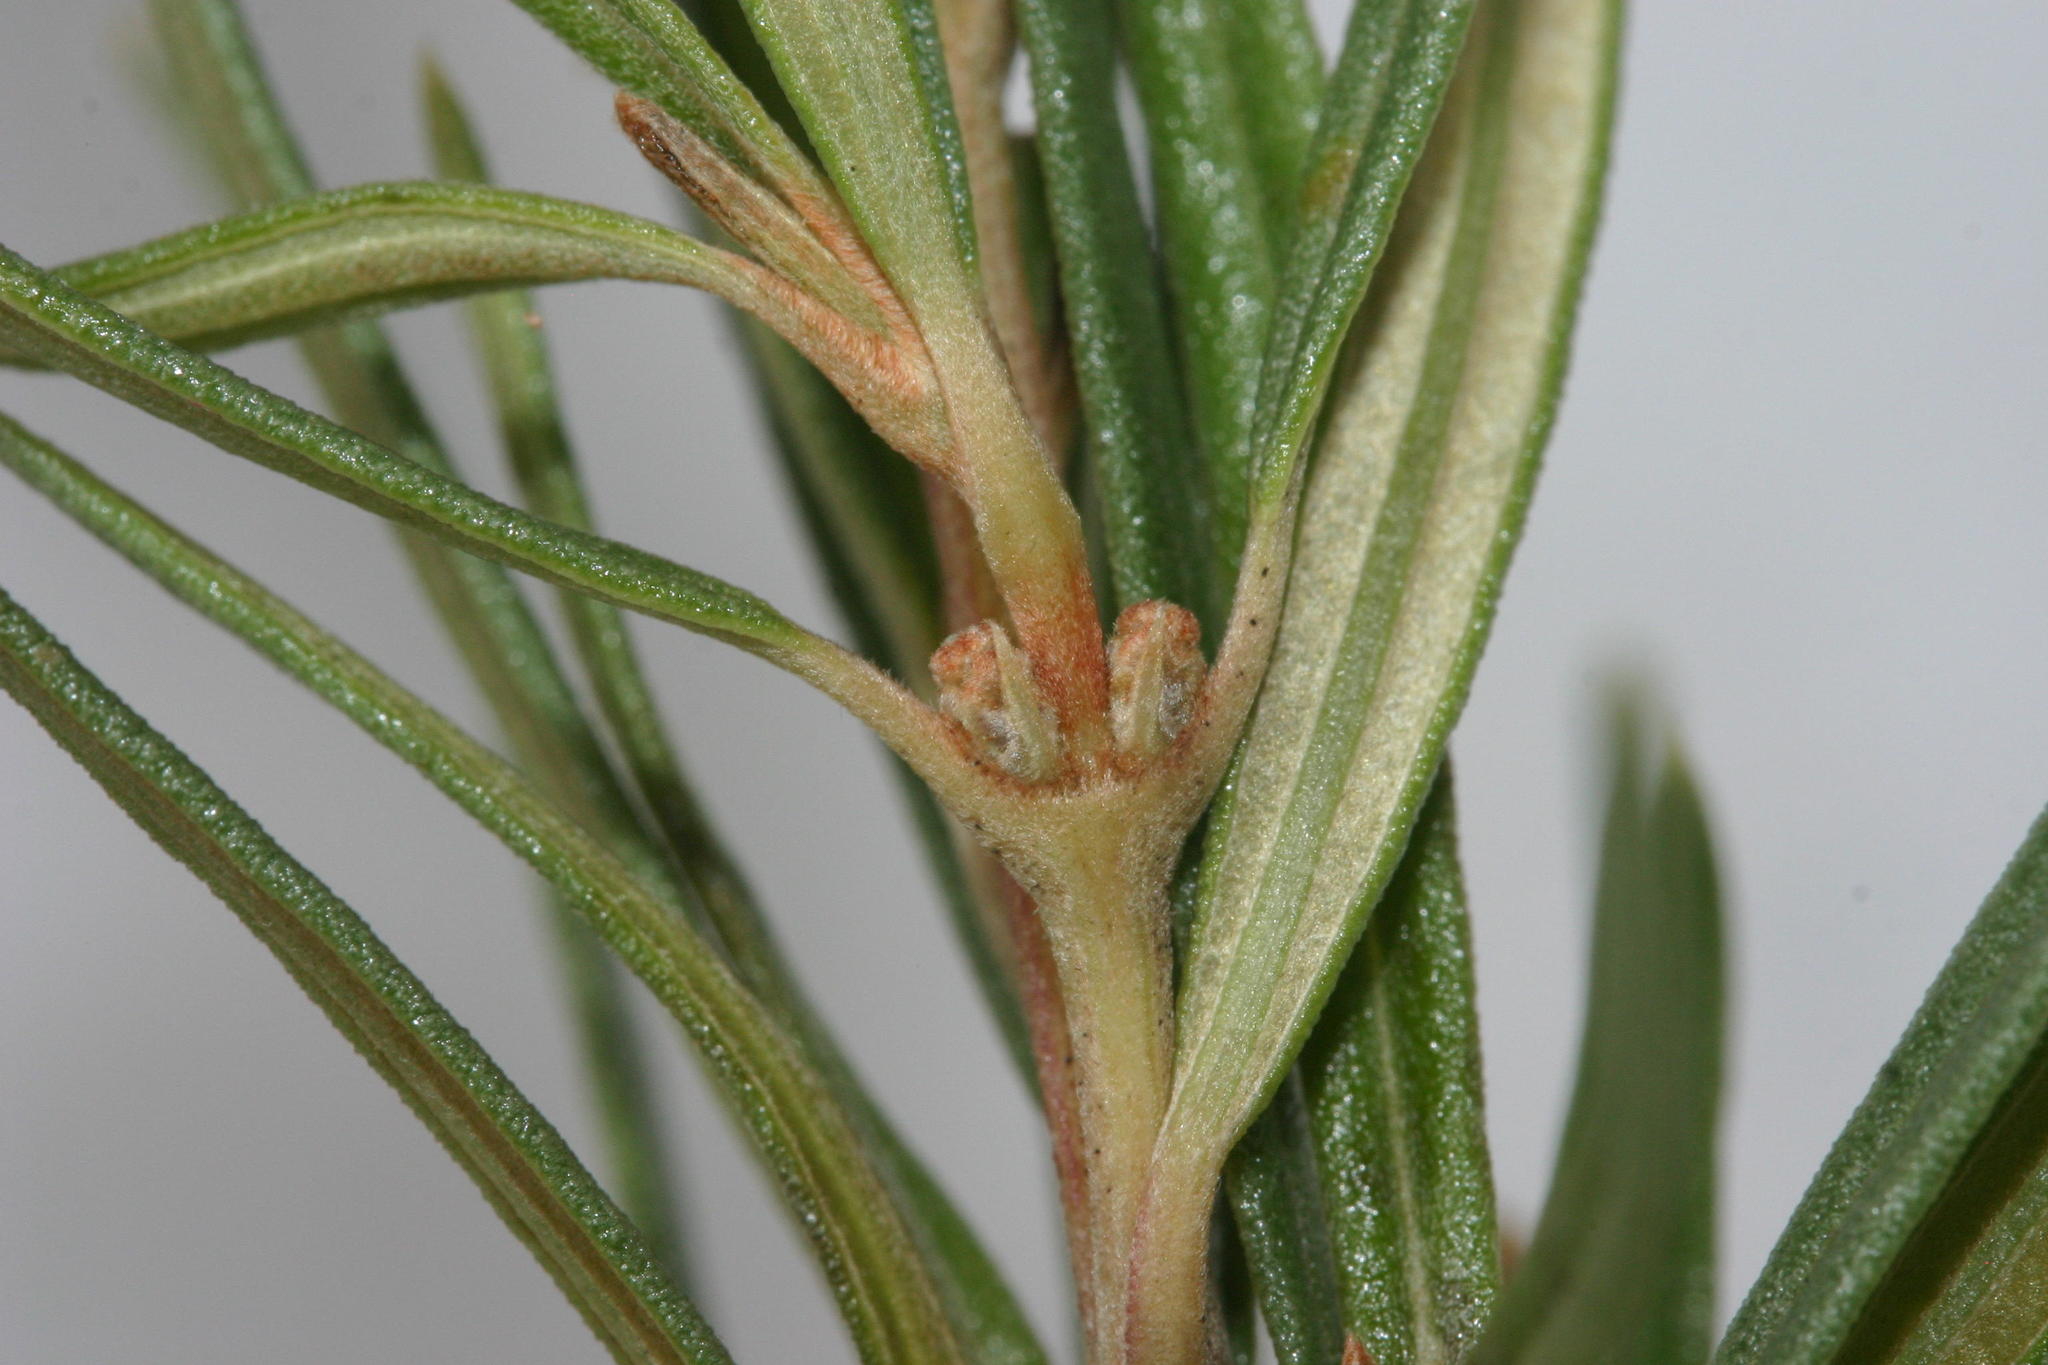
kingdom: Plantae
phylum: Tracheophyta
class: Magnoliopsida
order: Cornales
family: Grubbiaceae
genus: Grubbia
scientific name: Grubbia tomentosa
